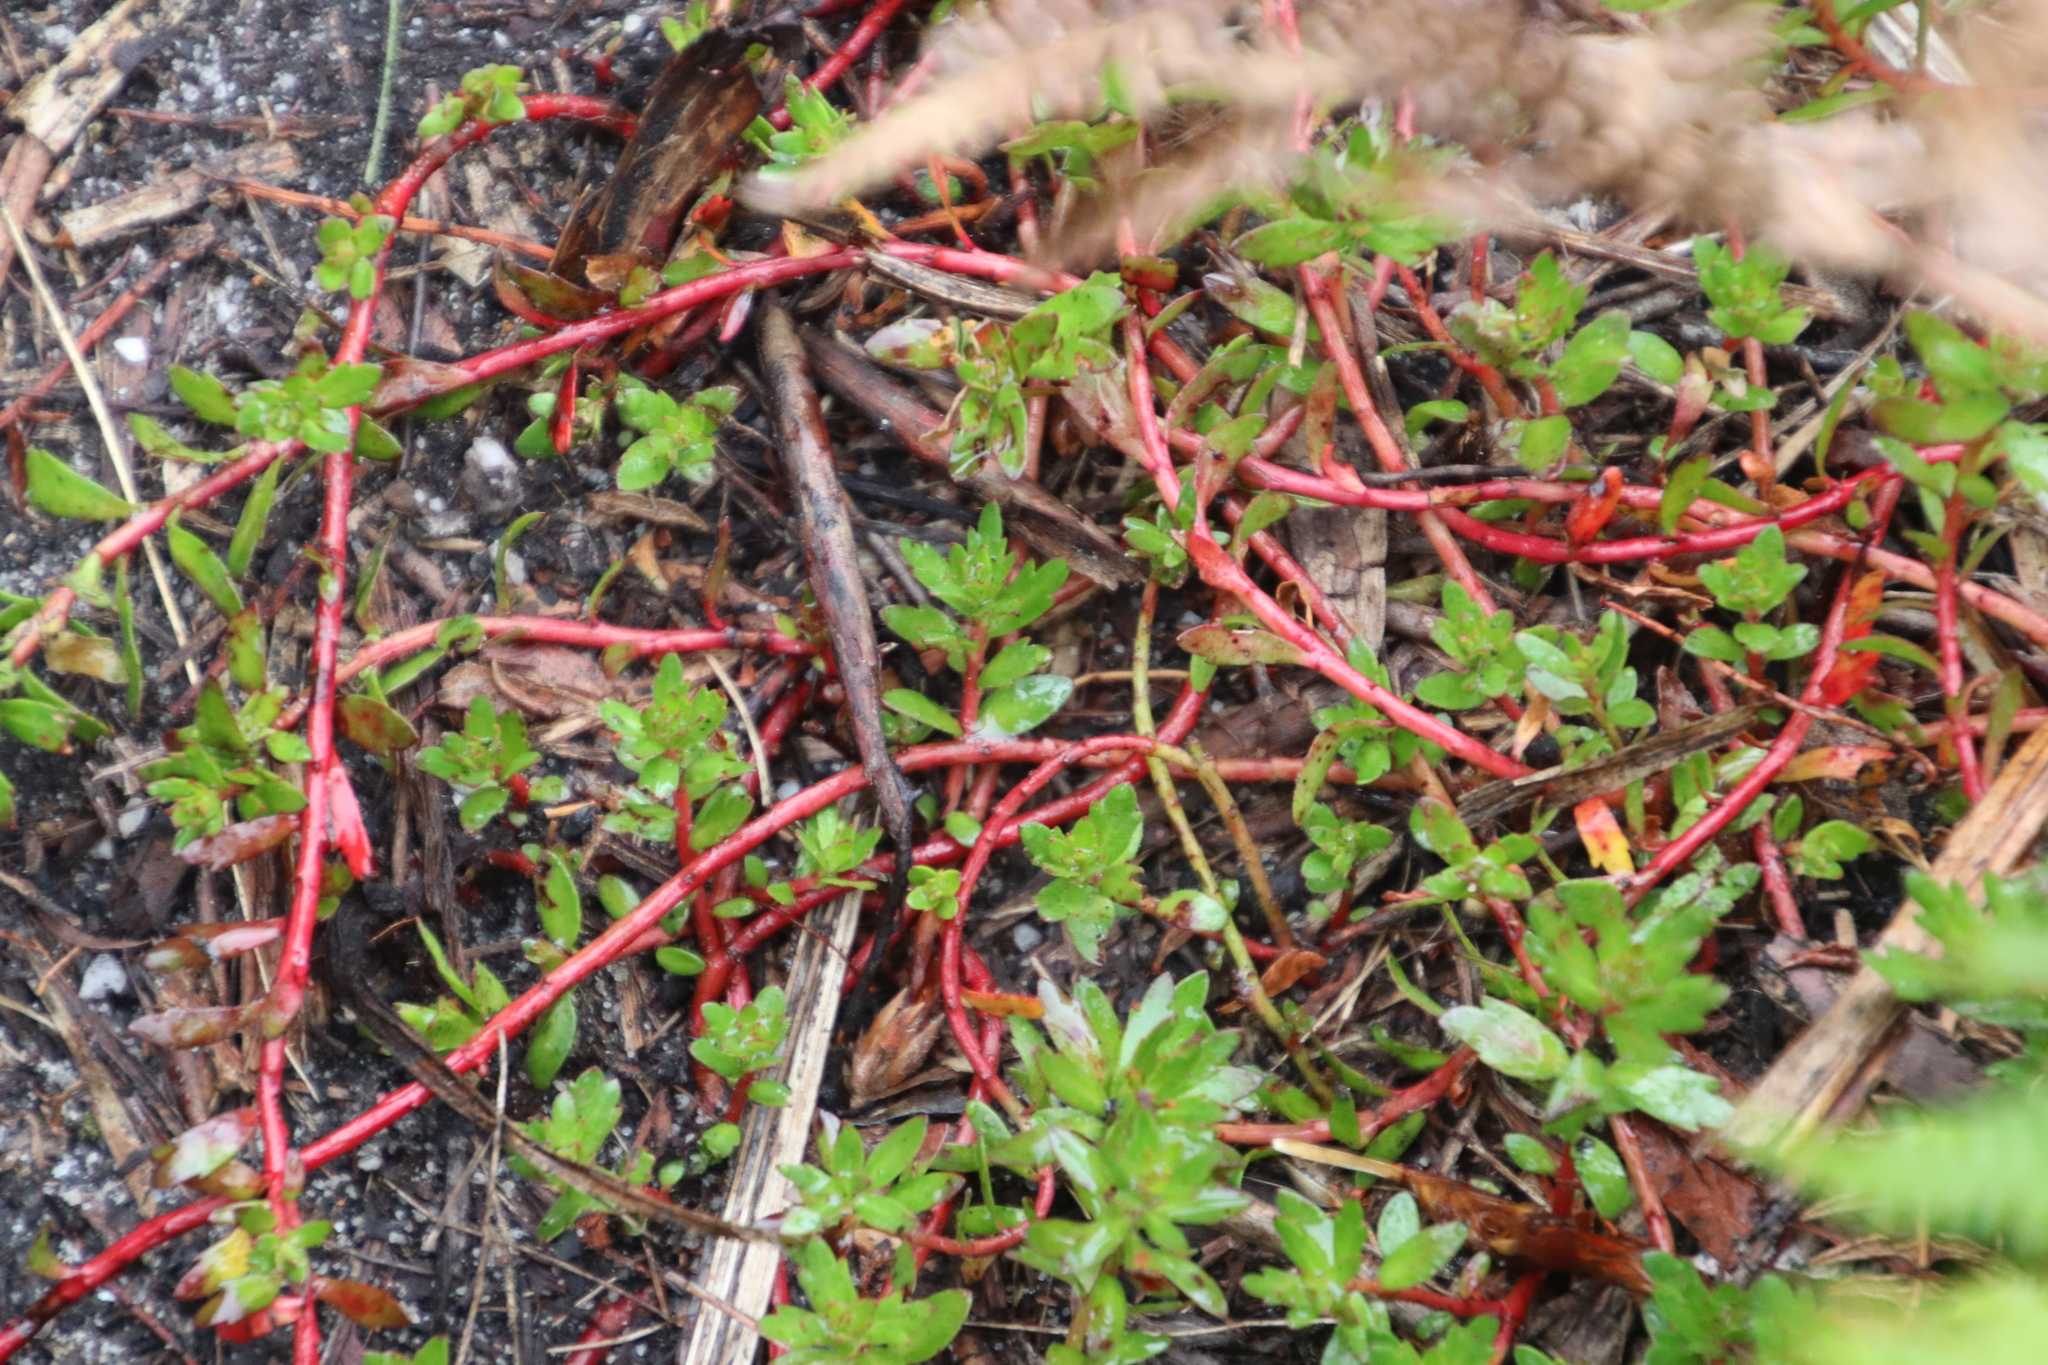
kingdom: Plantae
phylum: Tracheophyta
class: Magnoliopsida
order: Saxifragales
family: Haloragaceae
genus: Laurembergia
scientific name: Laurembergia repens
